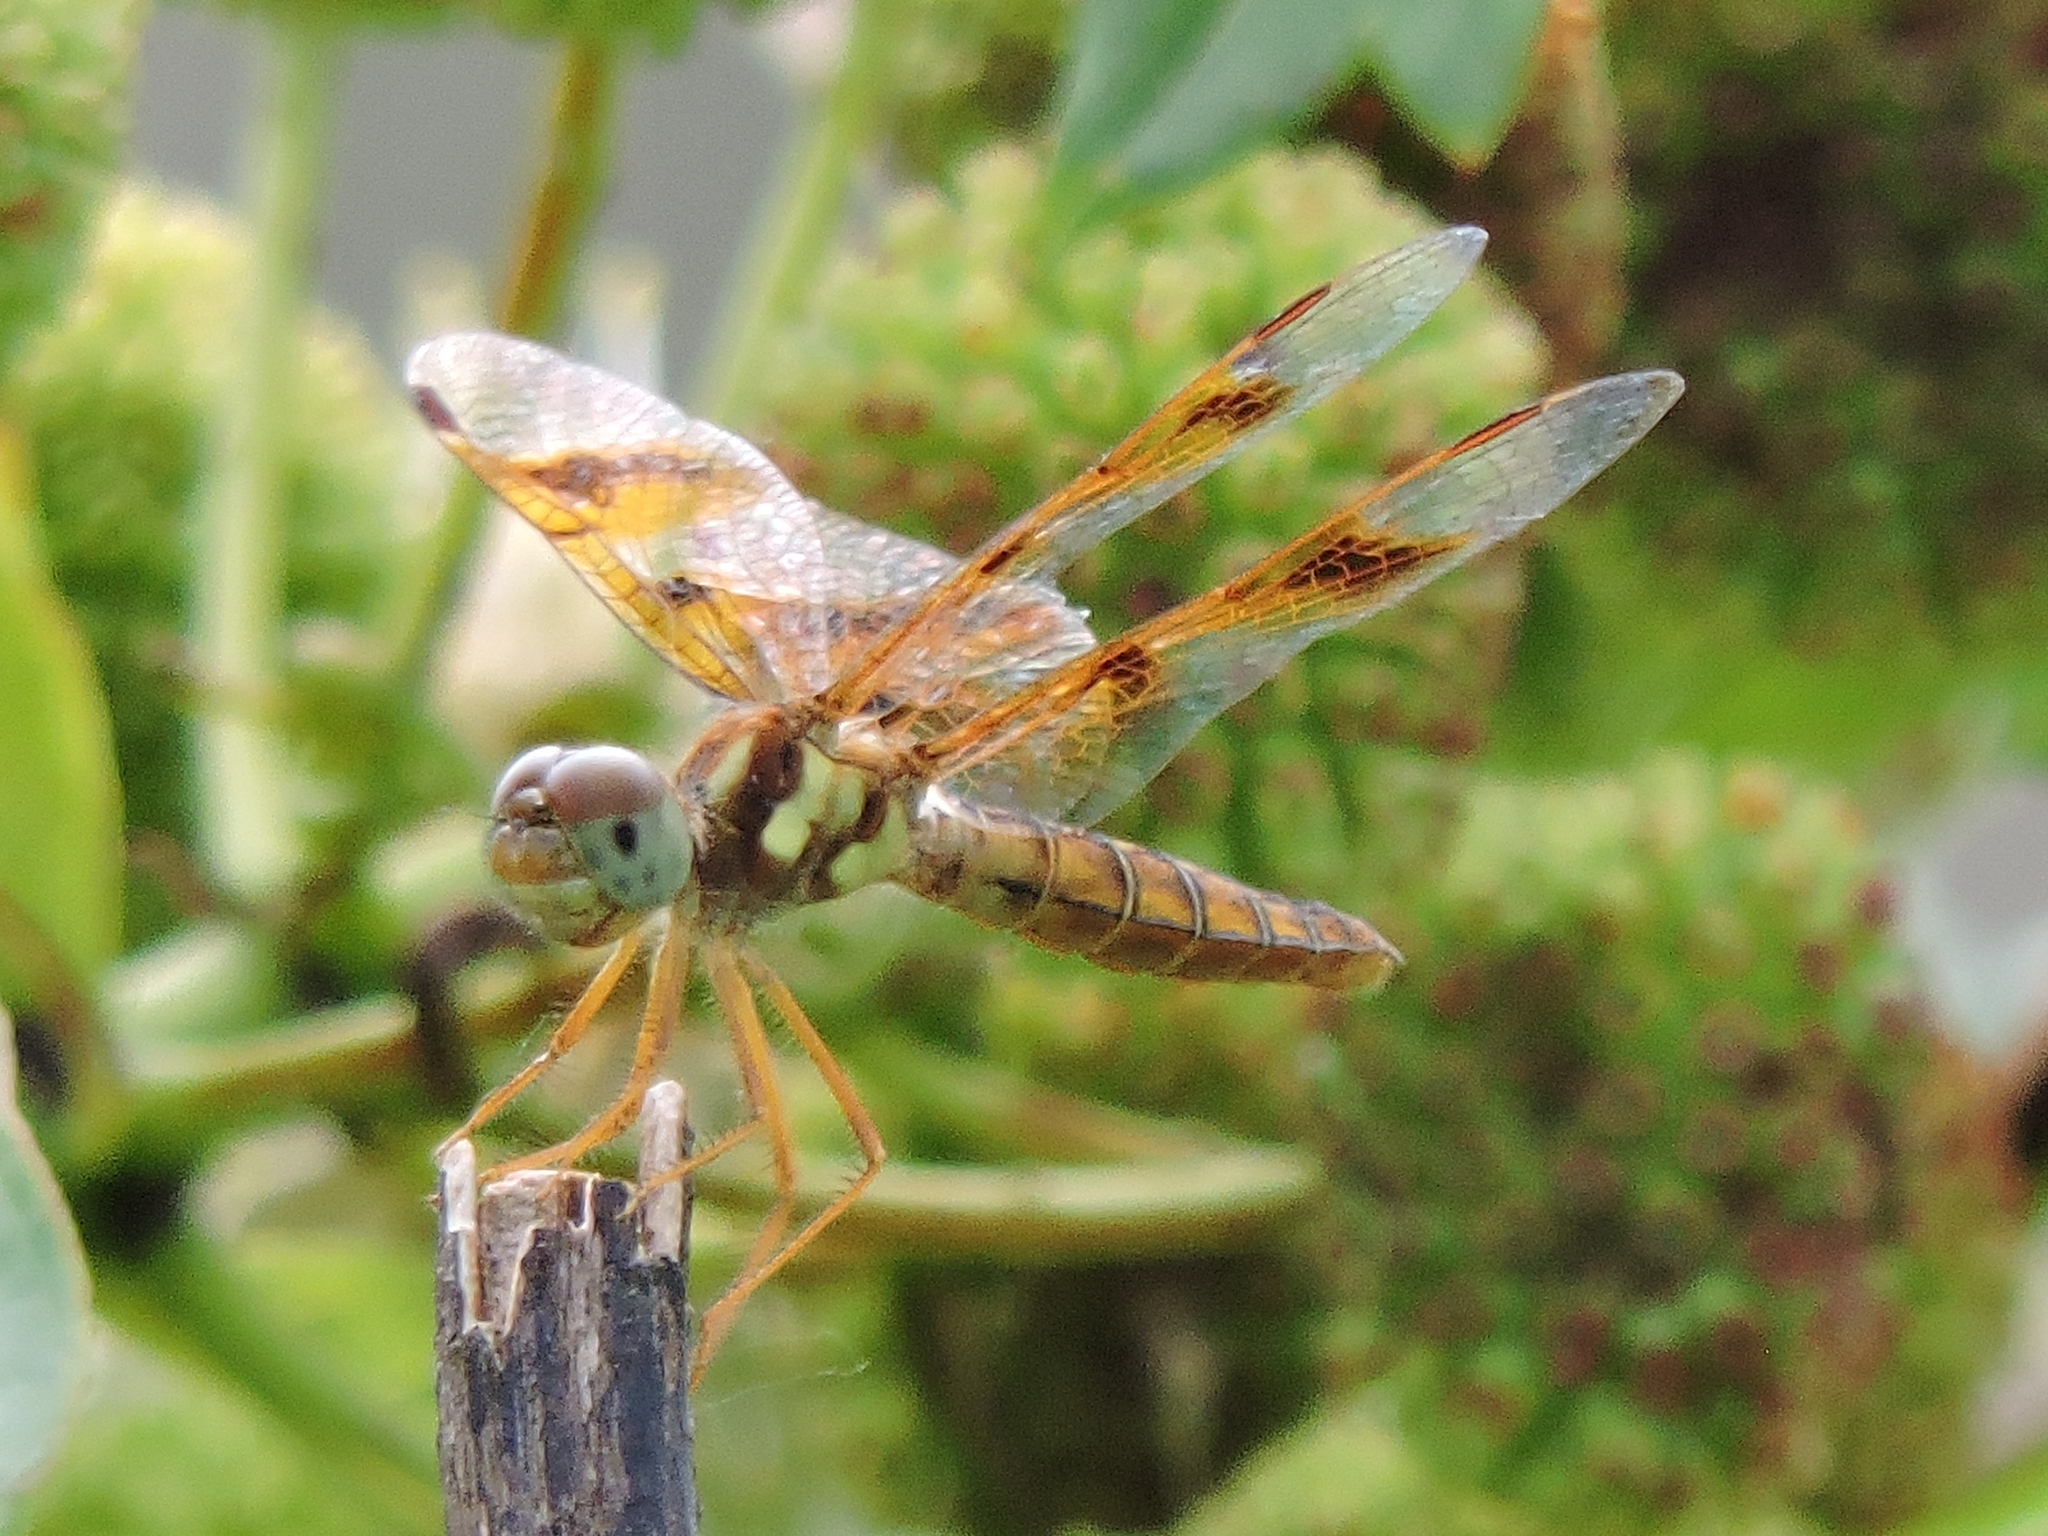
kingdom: Animalia
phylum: Arthropoda
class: Insecta
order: Odonata
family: Libellulidae
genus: Perithemis
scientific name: Perithemis tenera
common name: Eastern amberwing
